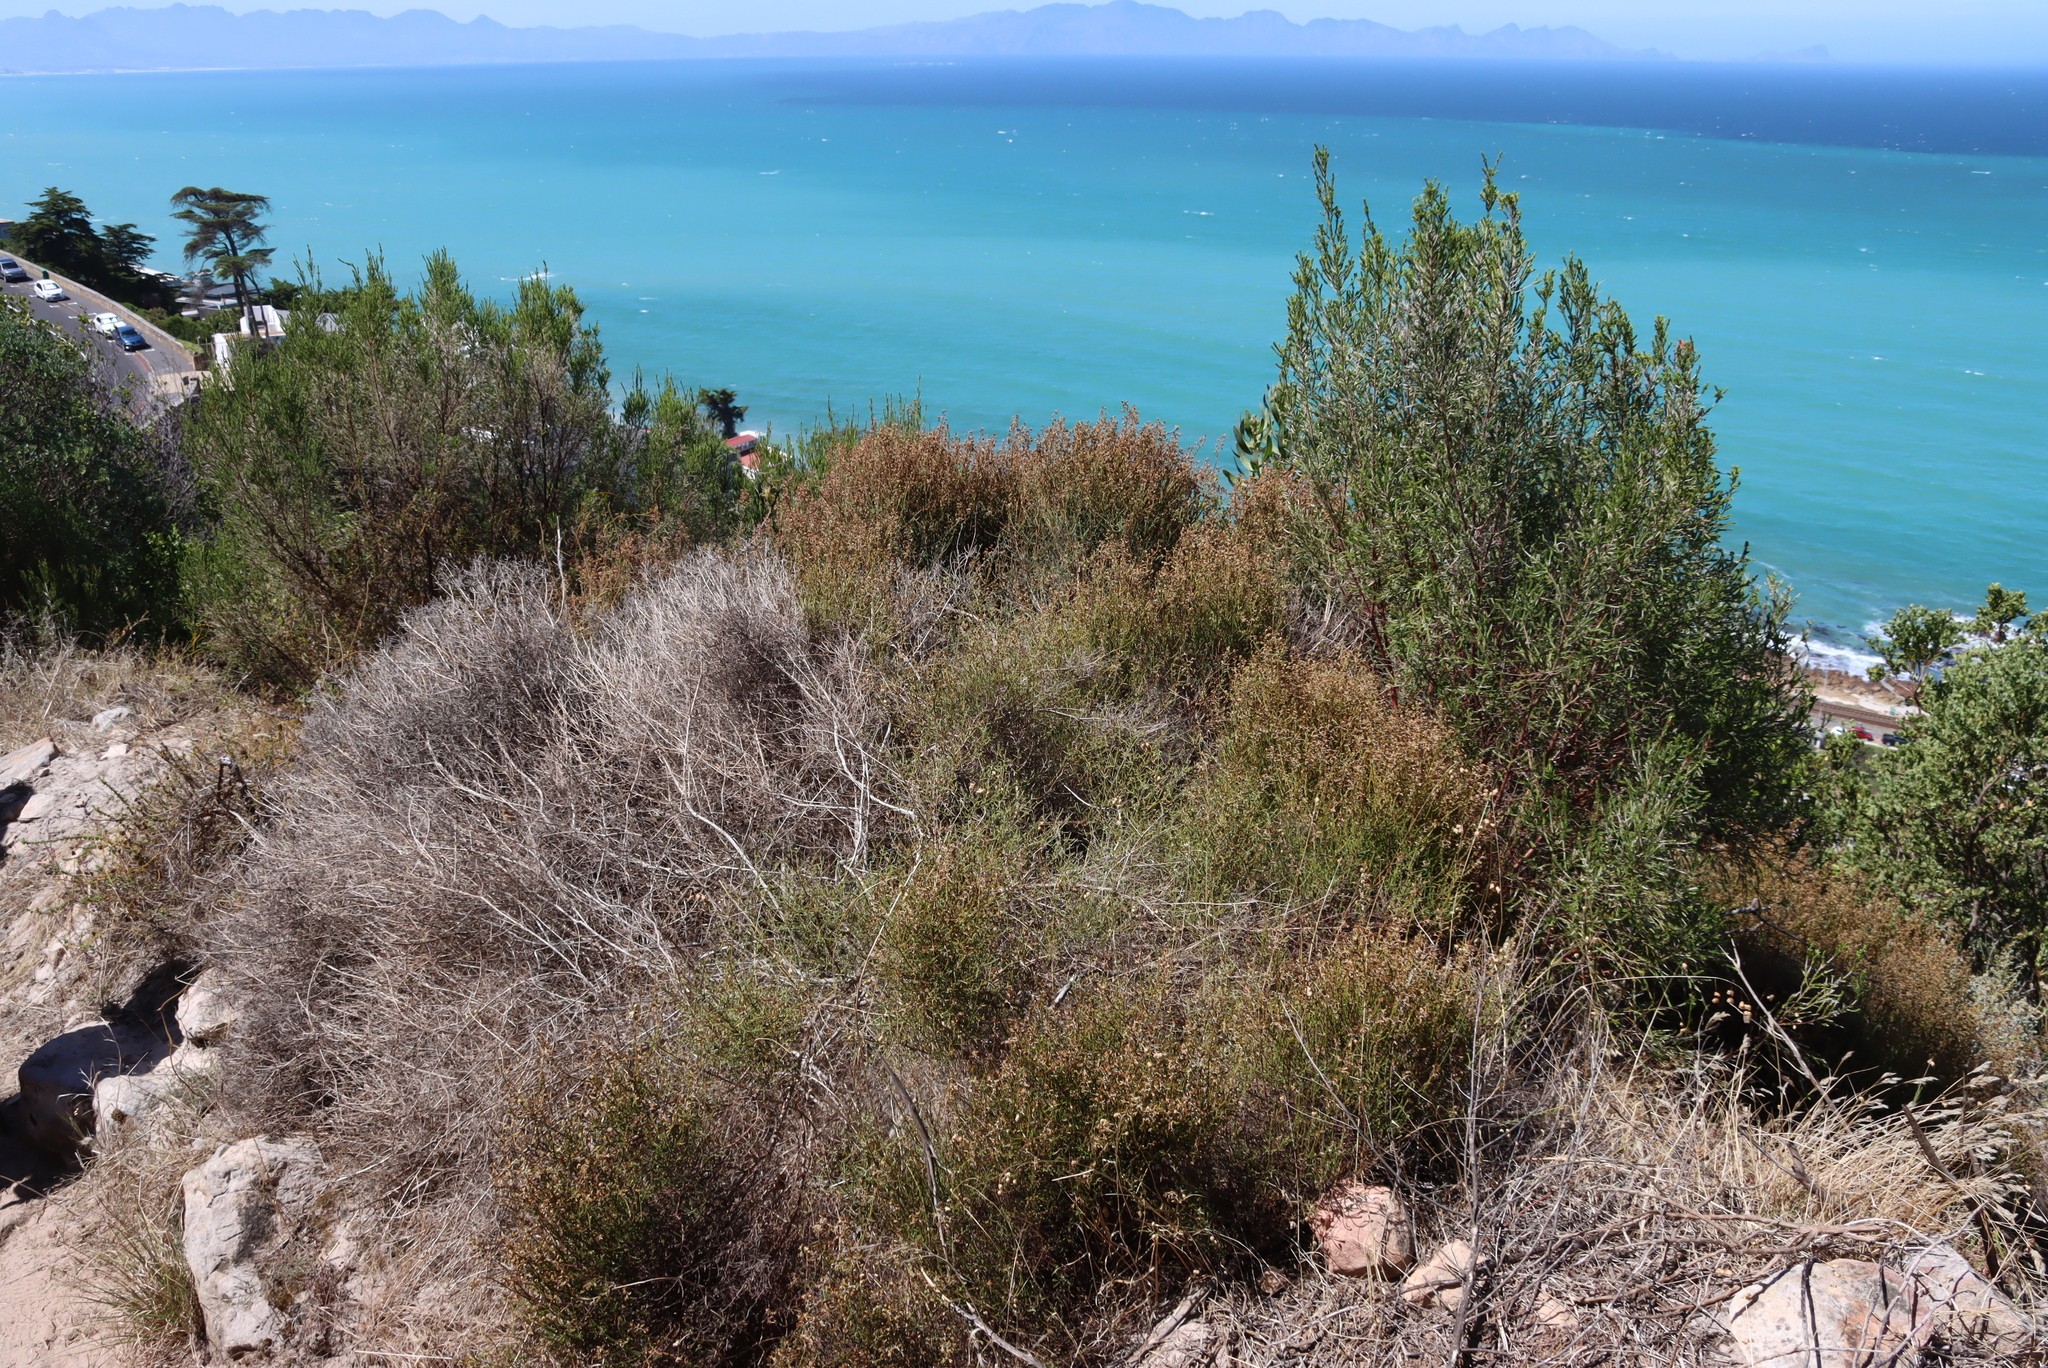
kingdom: Plantae
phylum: Tracheophyta
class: Magnoliopsida
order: Asterales
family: Asteraceae
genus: Myrovernix
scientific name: Myrovernix scaber
